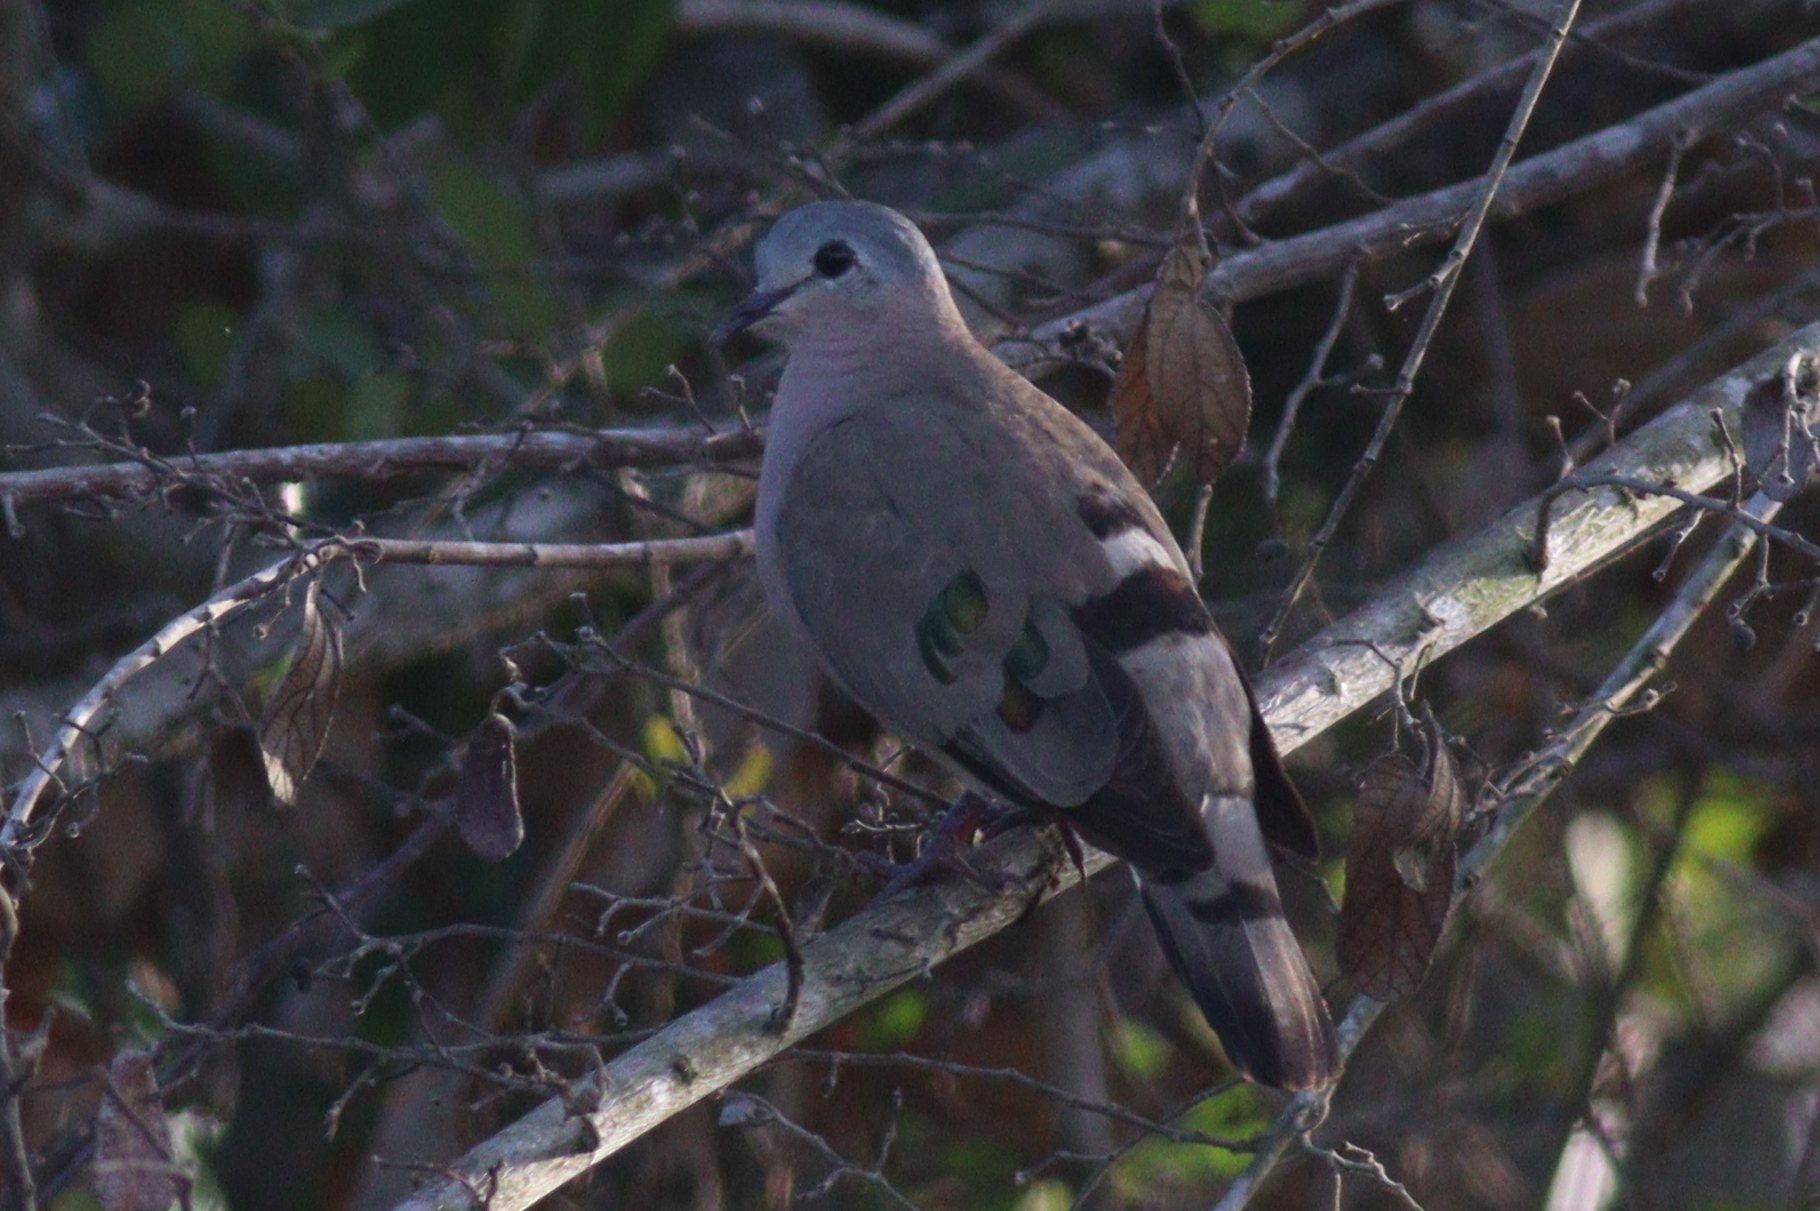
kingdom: Animalia
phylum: Chordata
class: Aves
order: Columbiformes
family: Columbidae
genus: Turtur
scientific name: Turtur chalcospilos
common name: Emerald-spotted wood dove
